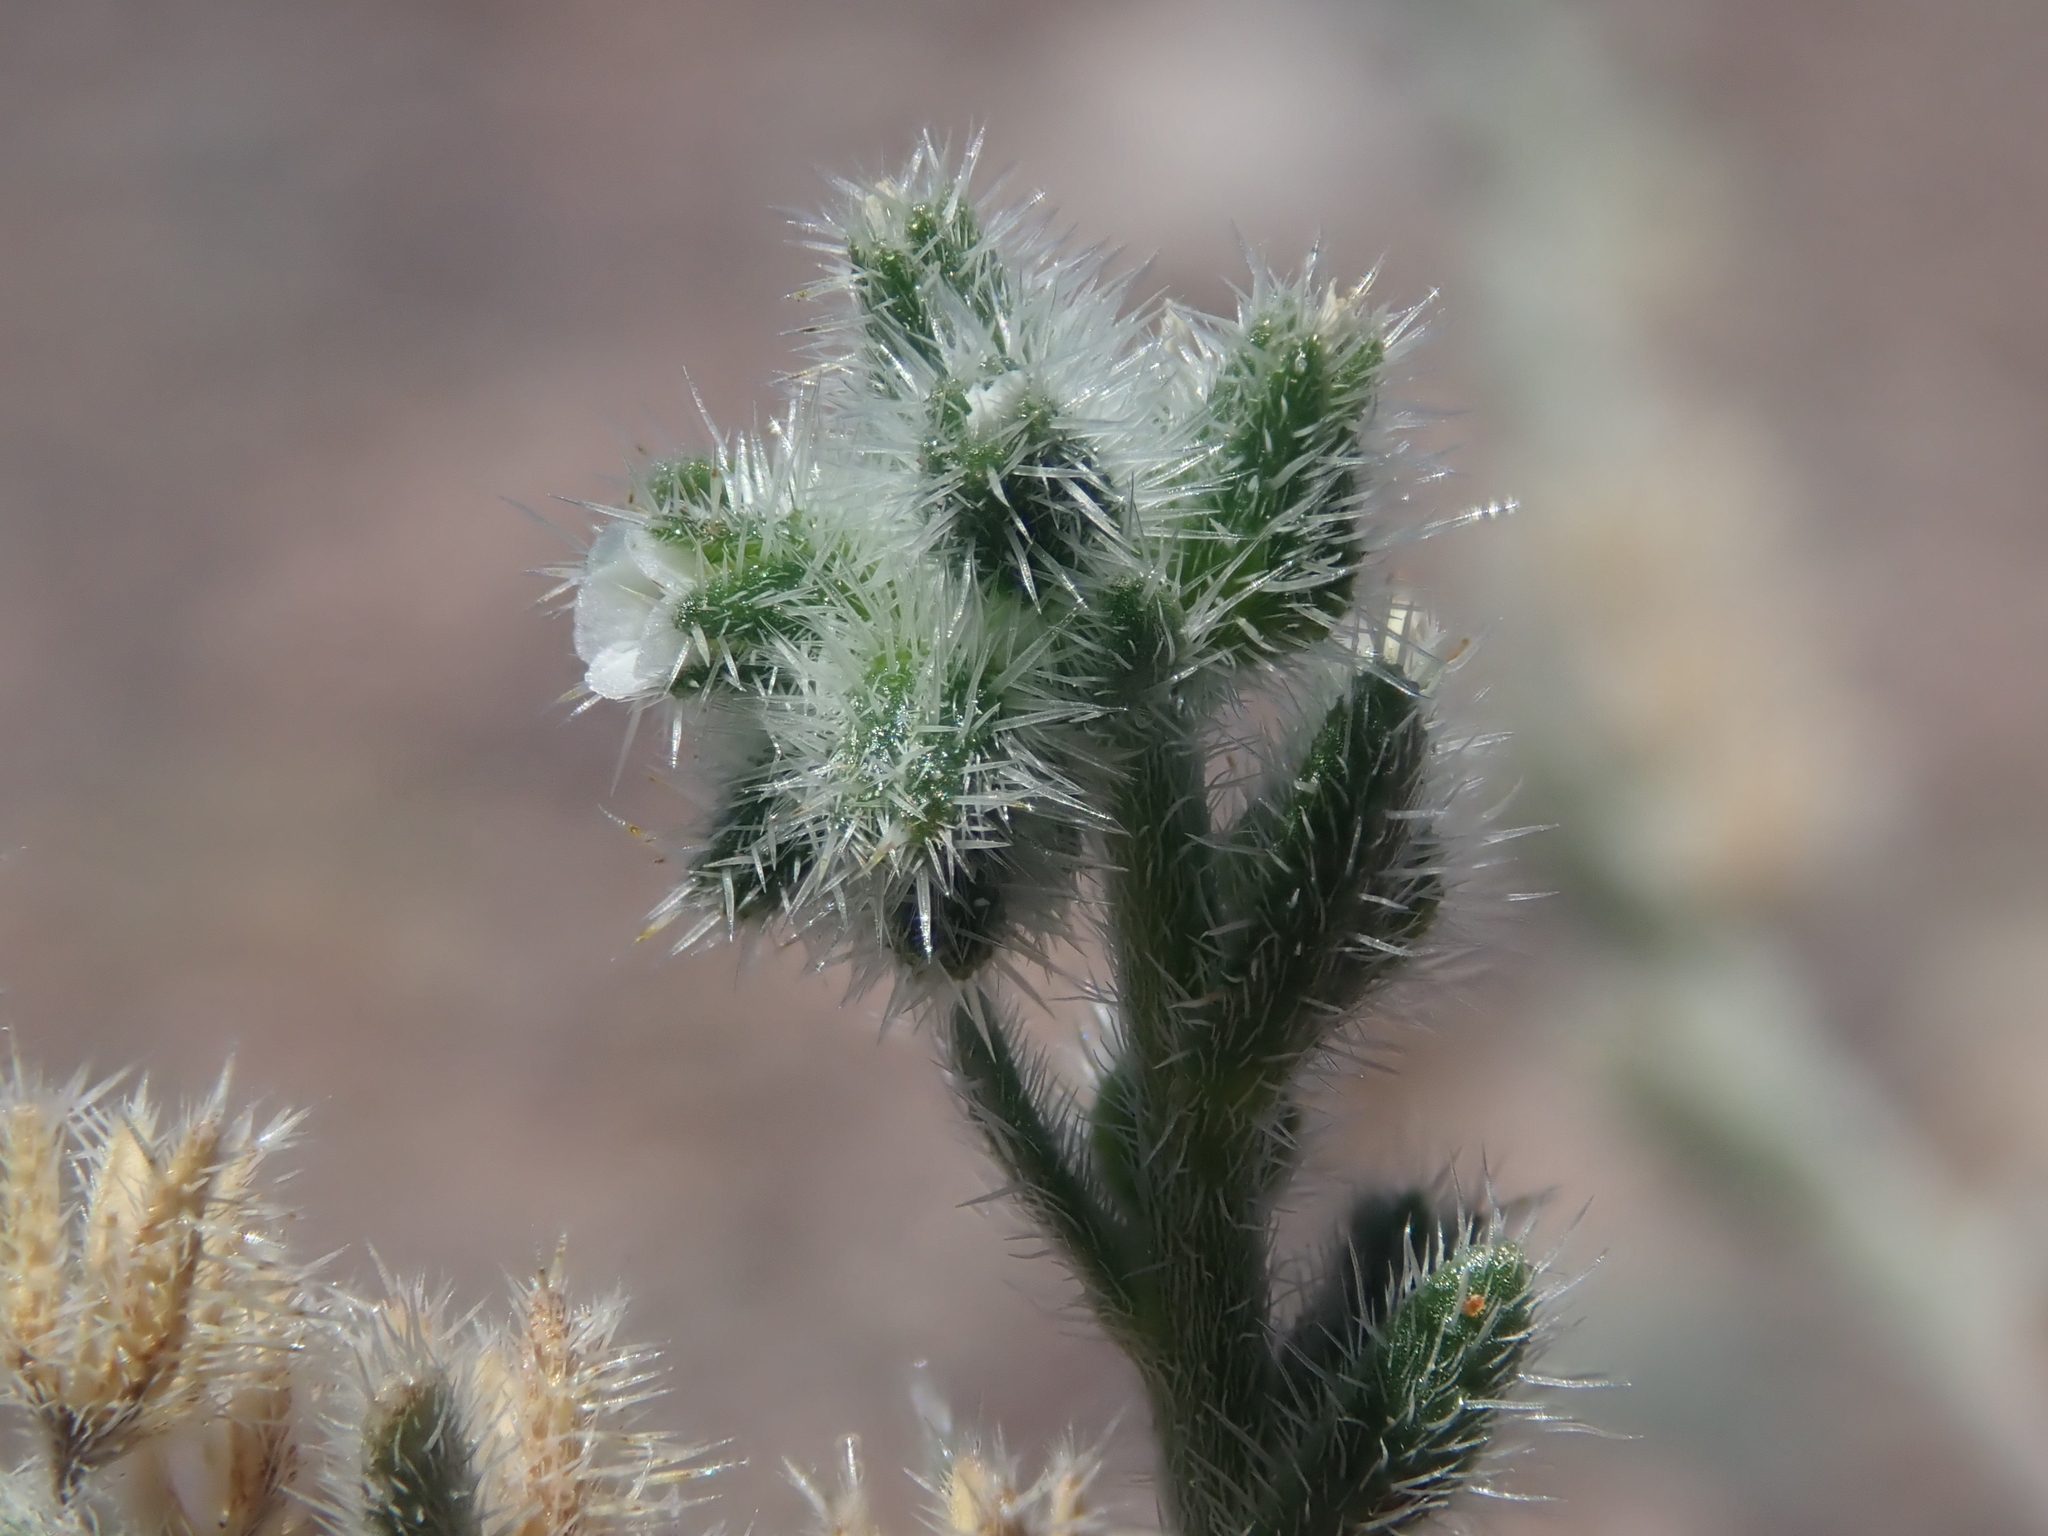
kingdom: Plantae
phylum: Tracheophyta
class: Magnoliopsida
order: Boraginales
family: Boraginaceae
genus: Cryptantha
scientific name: Cryptantha filaginea
